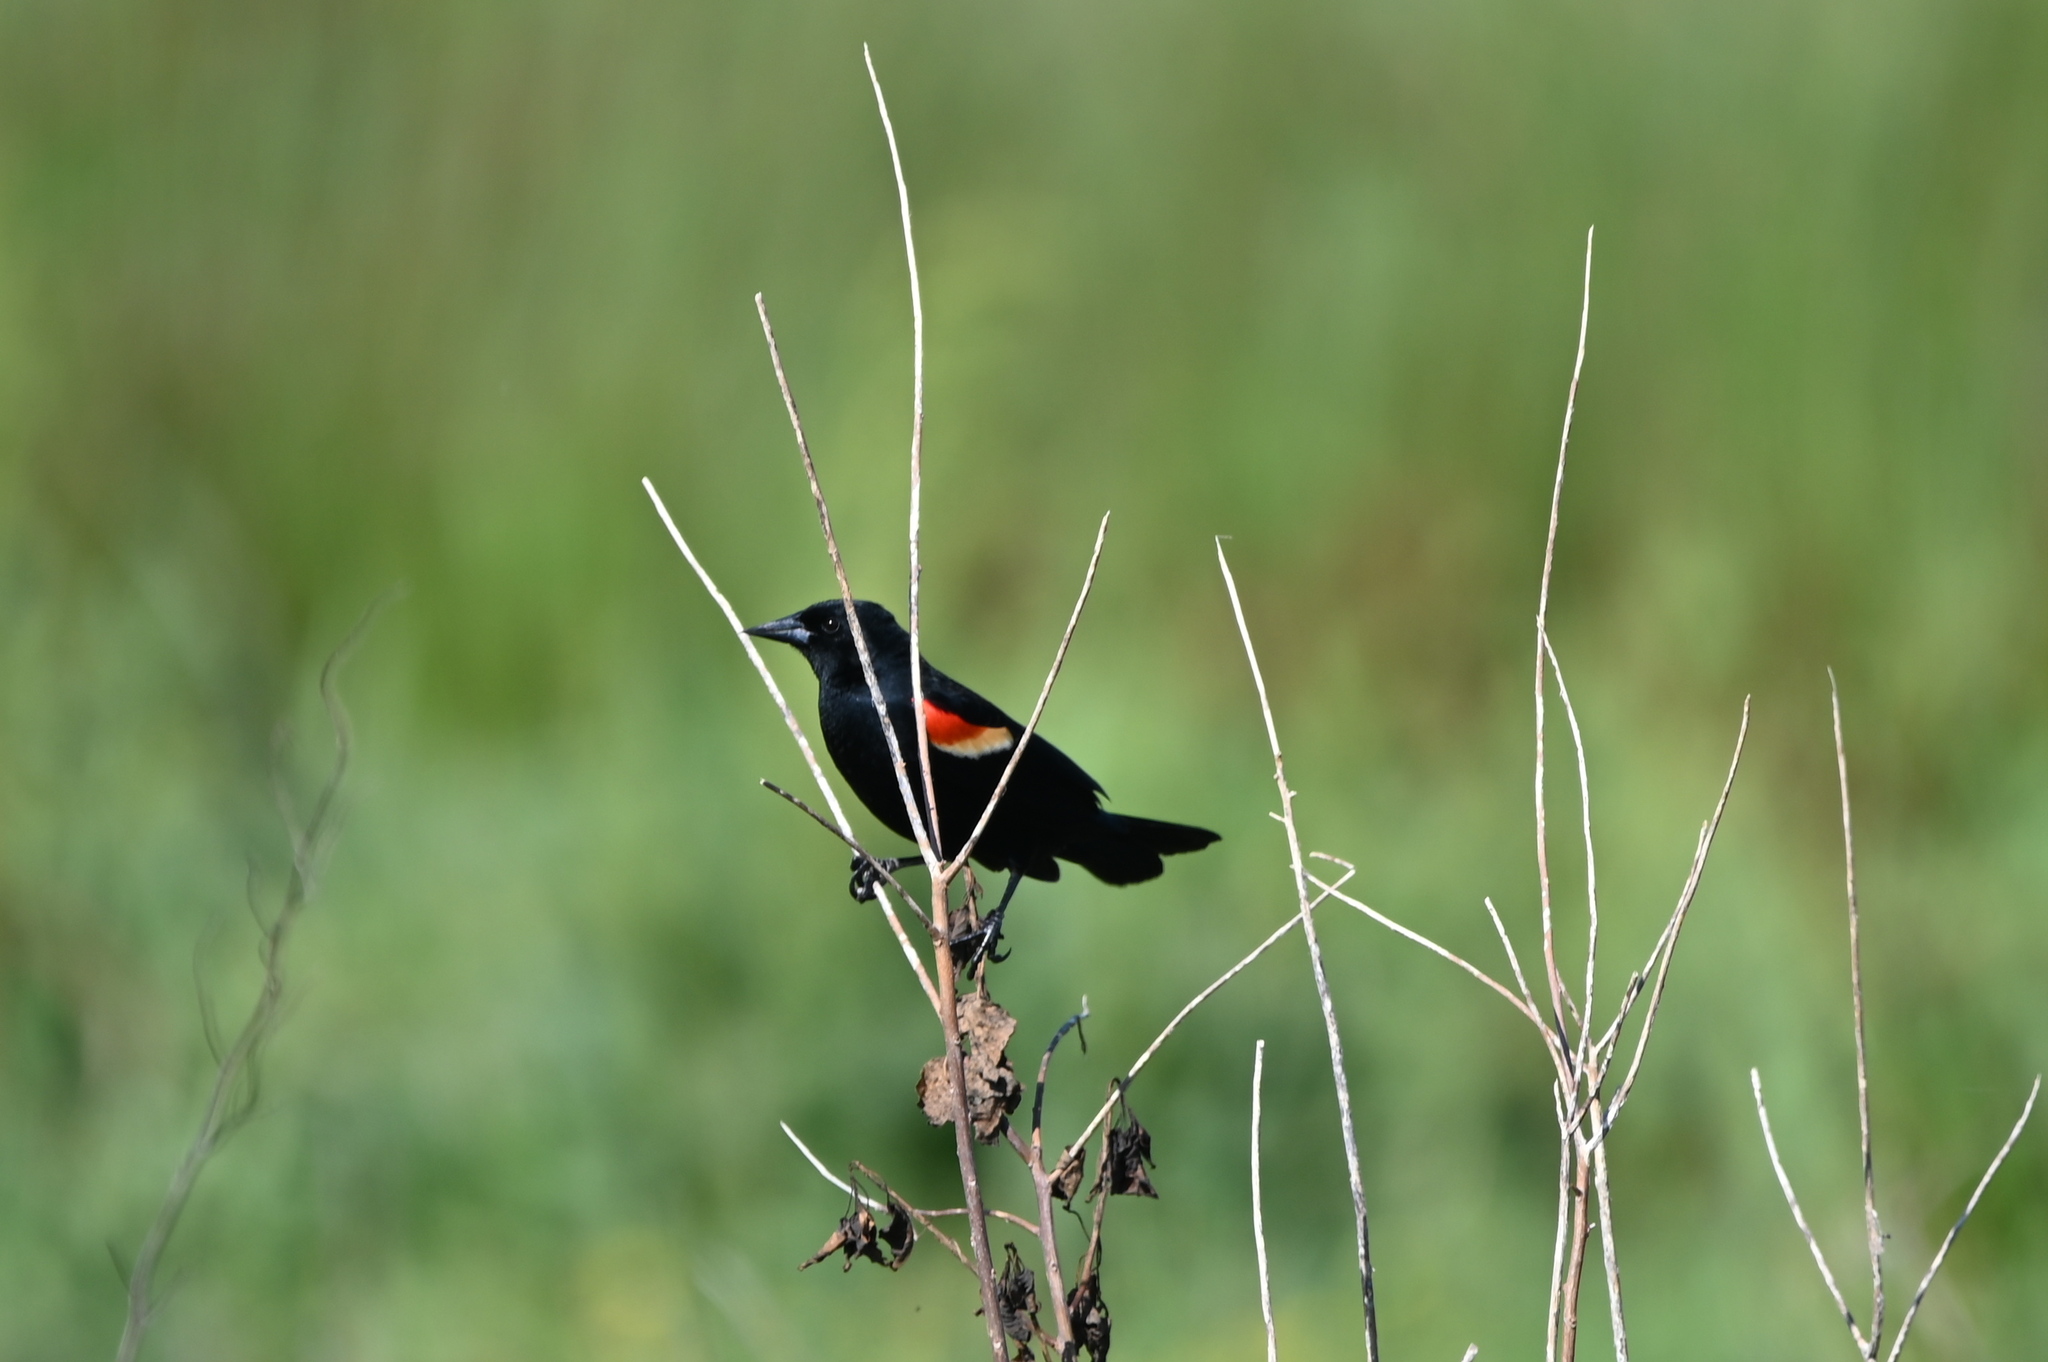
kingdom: Animalia
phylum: Chordata
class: Aves
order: Passeriformes
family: Icteridae
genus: Agelaius
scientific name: Agelaius phoeniceus
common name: Red-winged blackbird
